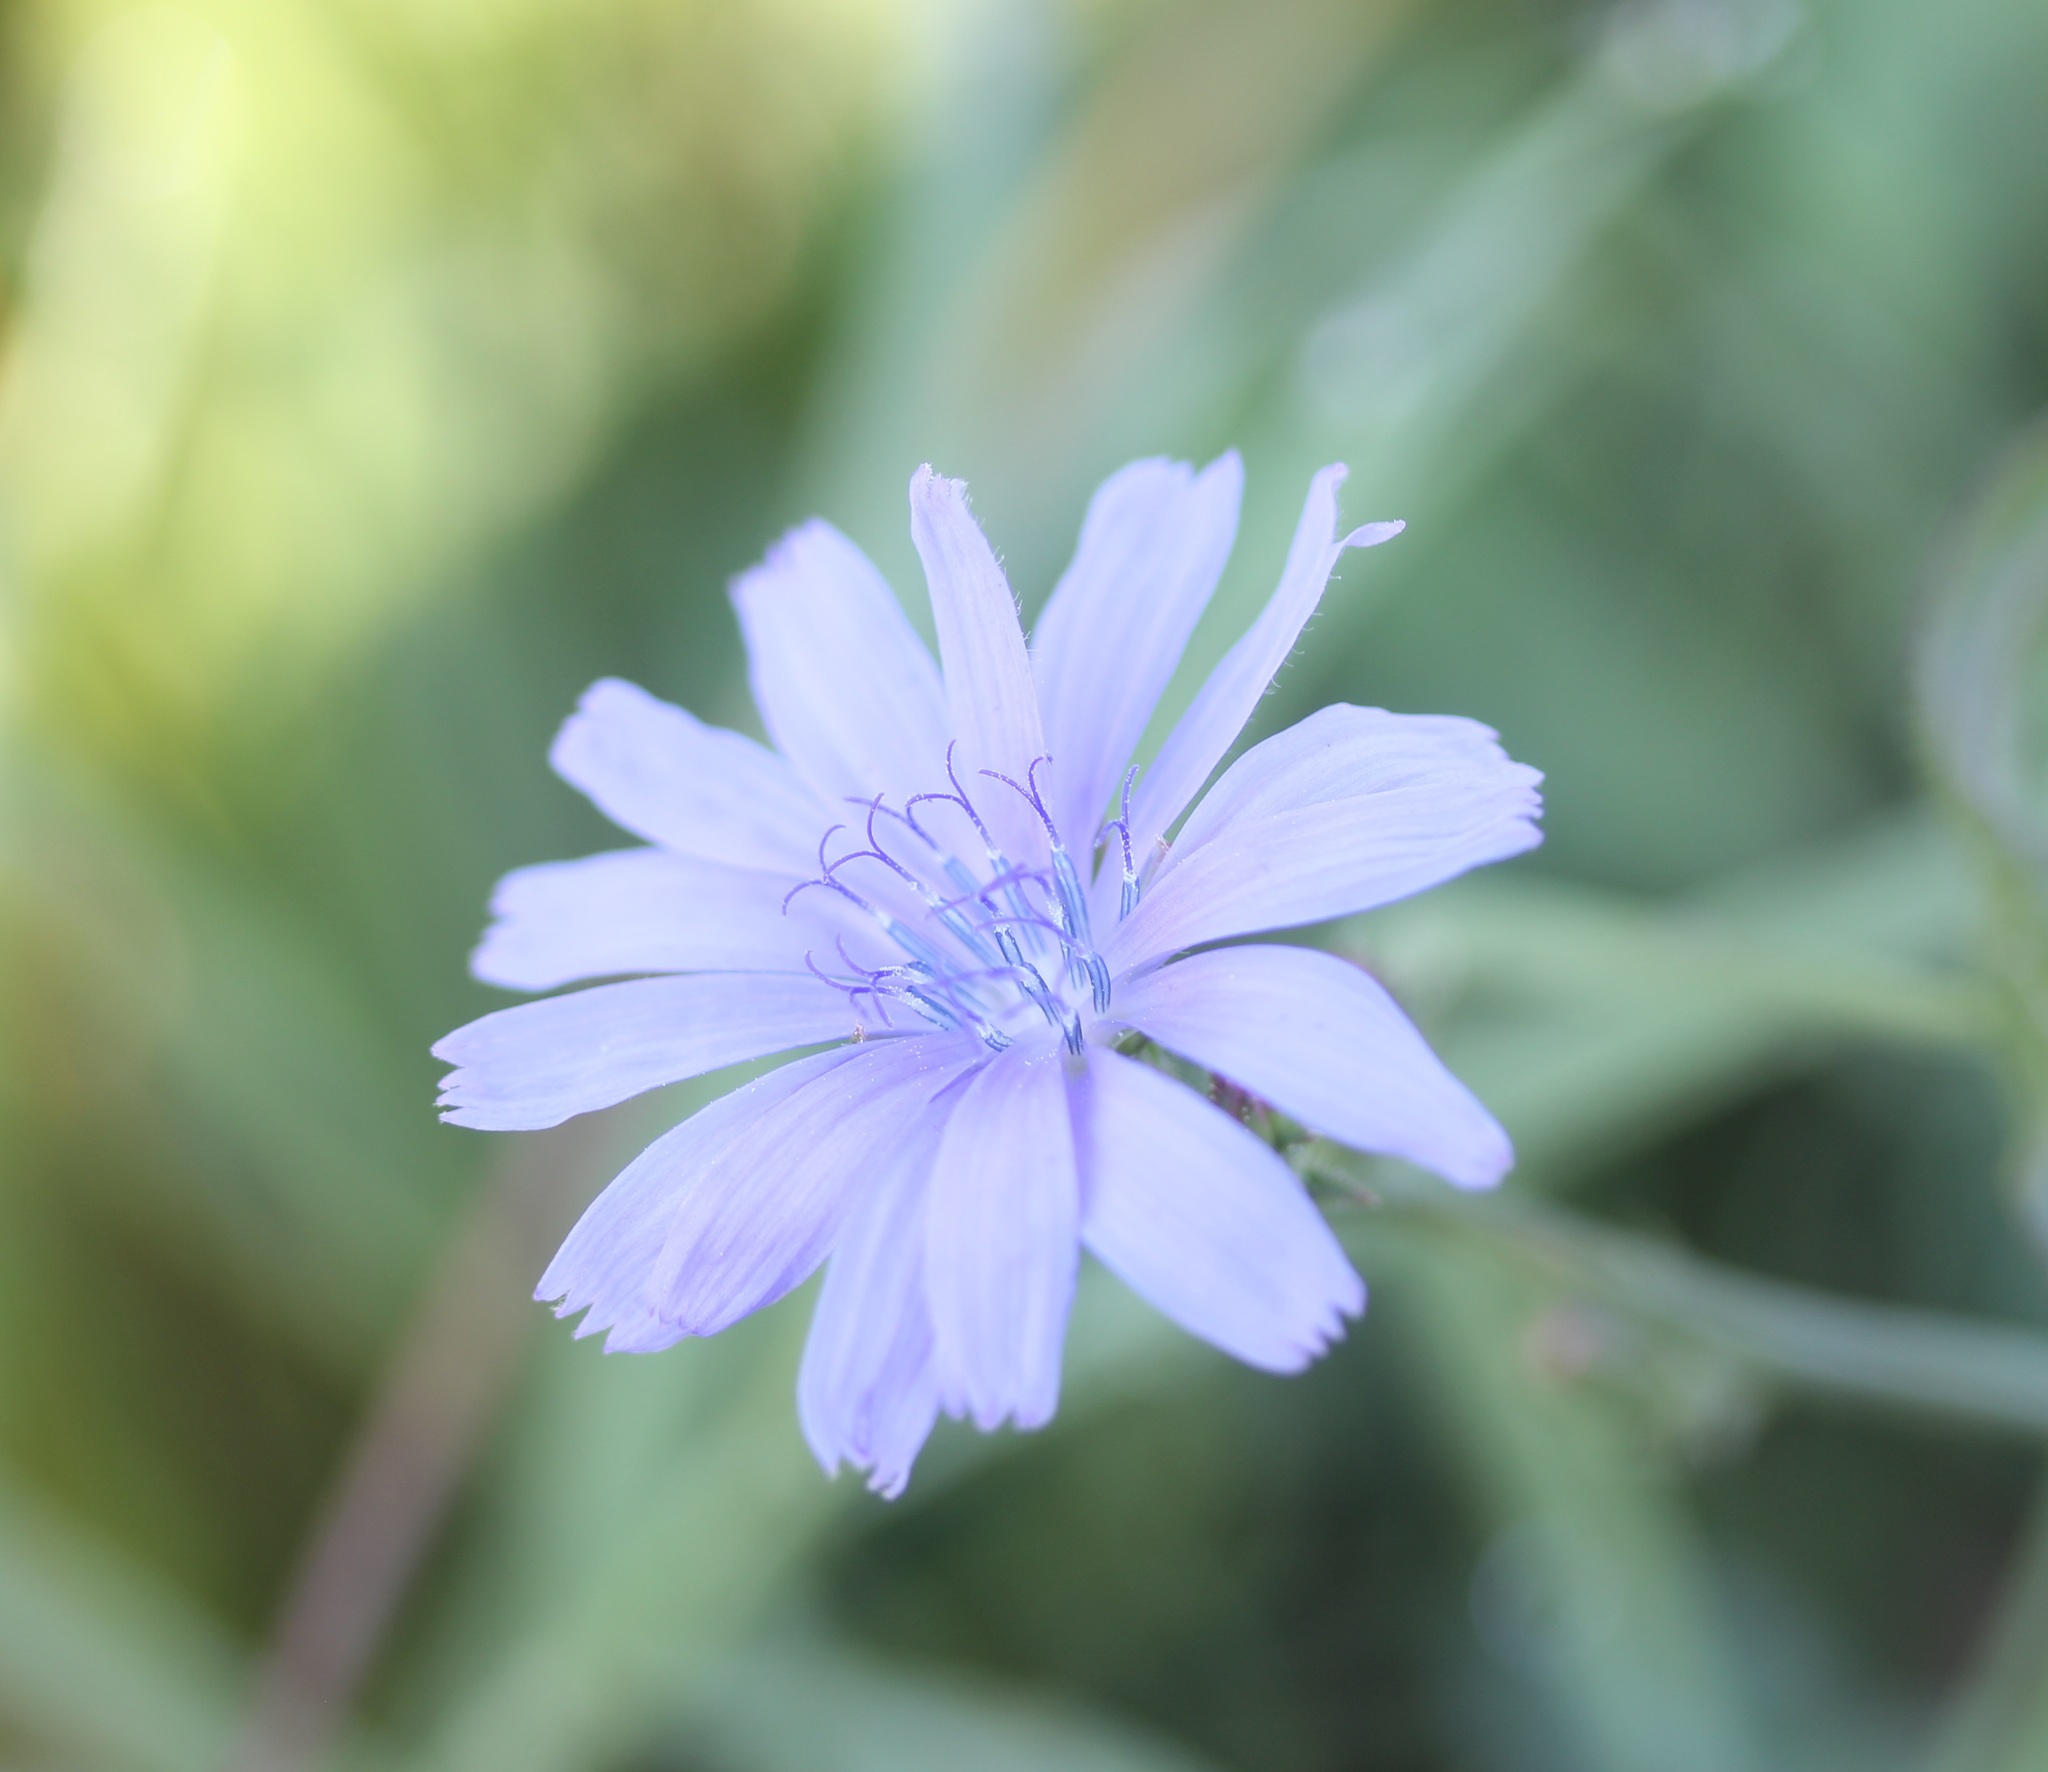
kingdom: Plantae
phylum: Tracheophyta
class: Magnoliopsida
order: Asterales
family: Asteraceae
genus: Cichorium
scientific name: Cichorium intybus
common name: Chicory
